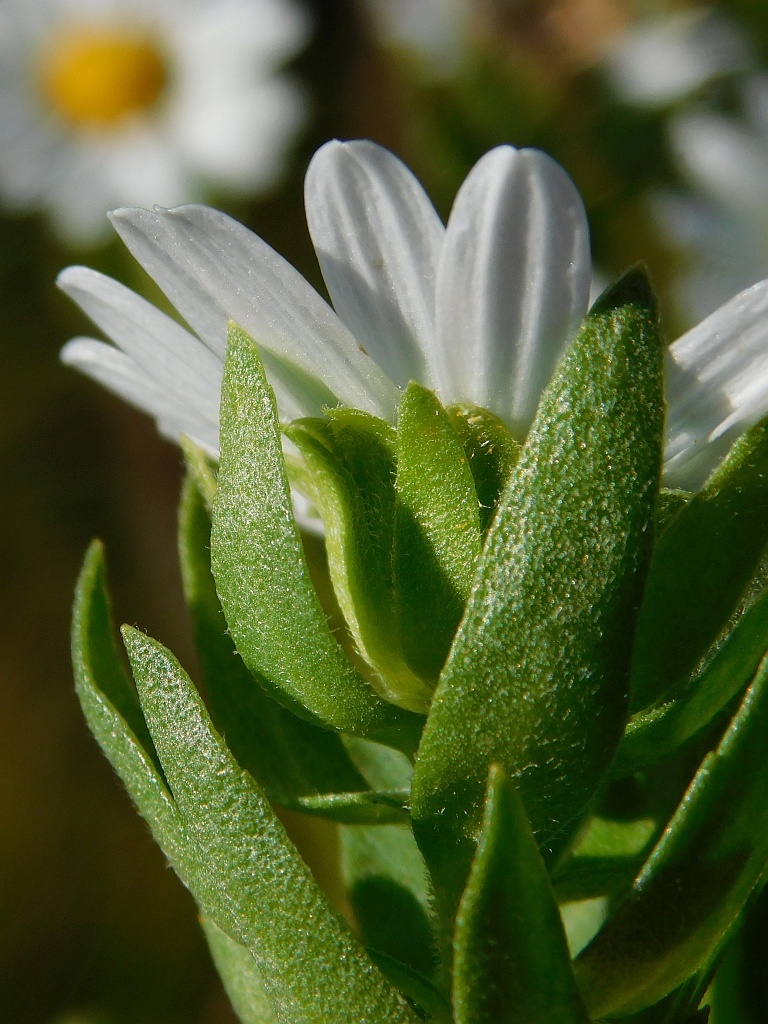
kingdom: Plantae
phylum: Tracheophyta
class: Magnoliopsida
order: Asterales
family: Asteraceae
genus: Osmitopsis
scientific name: Osmitopsis asteriscoides
